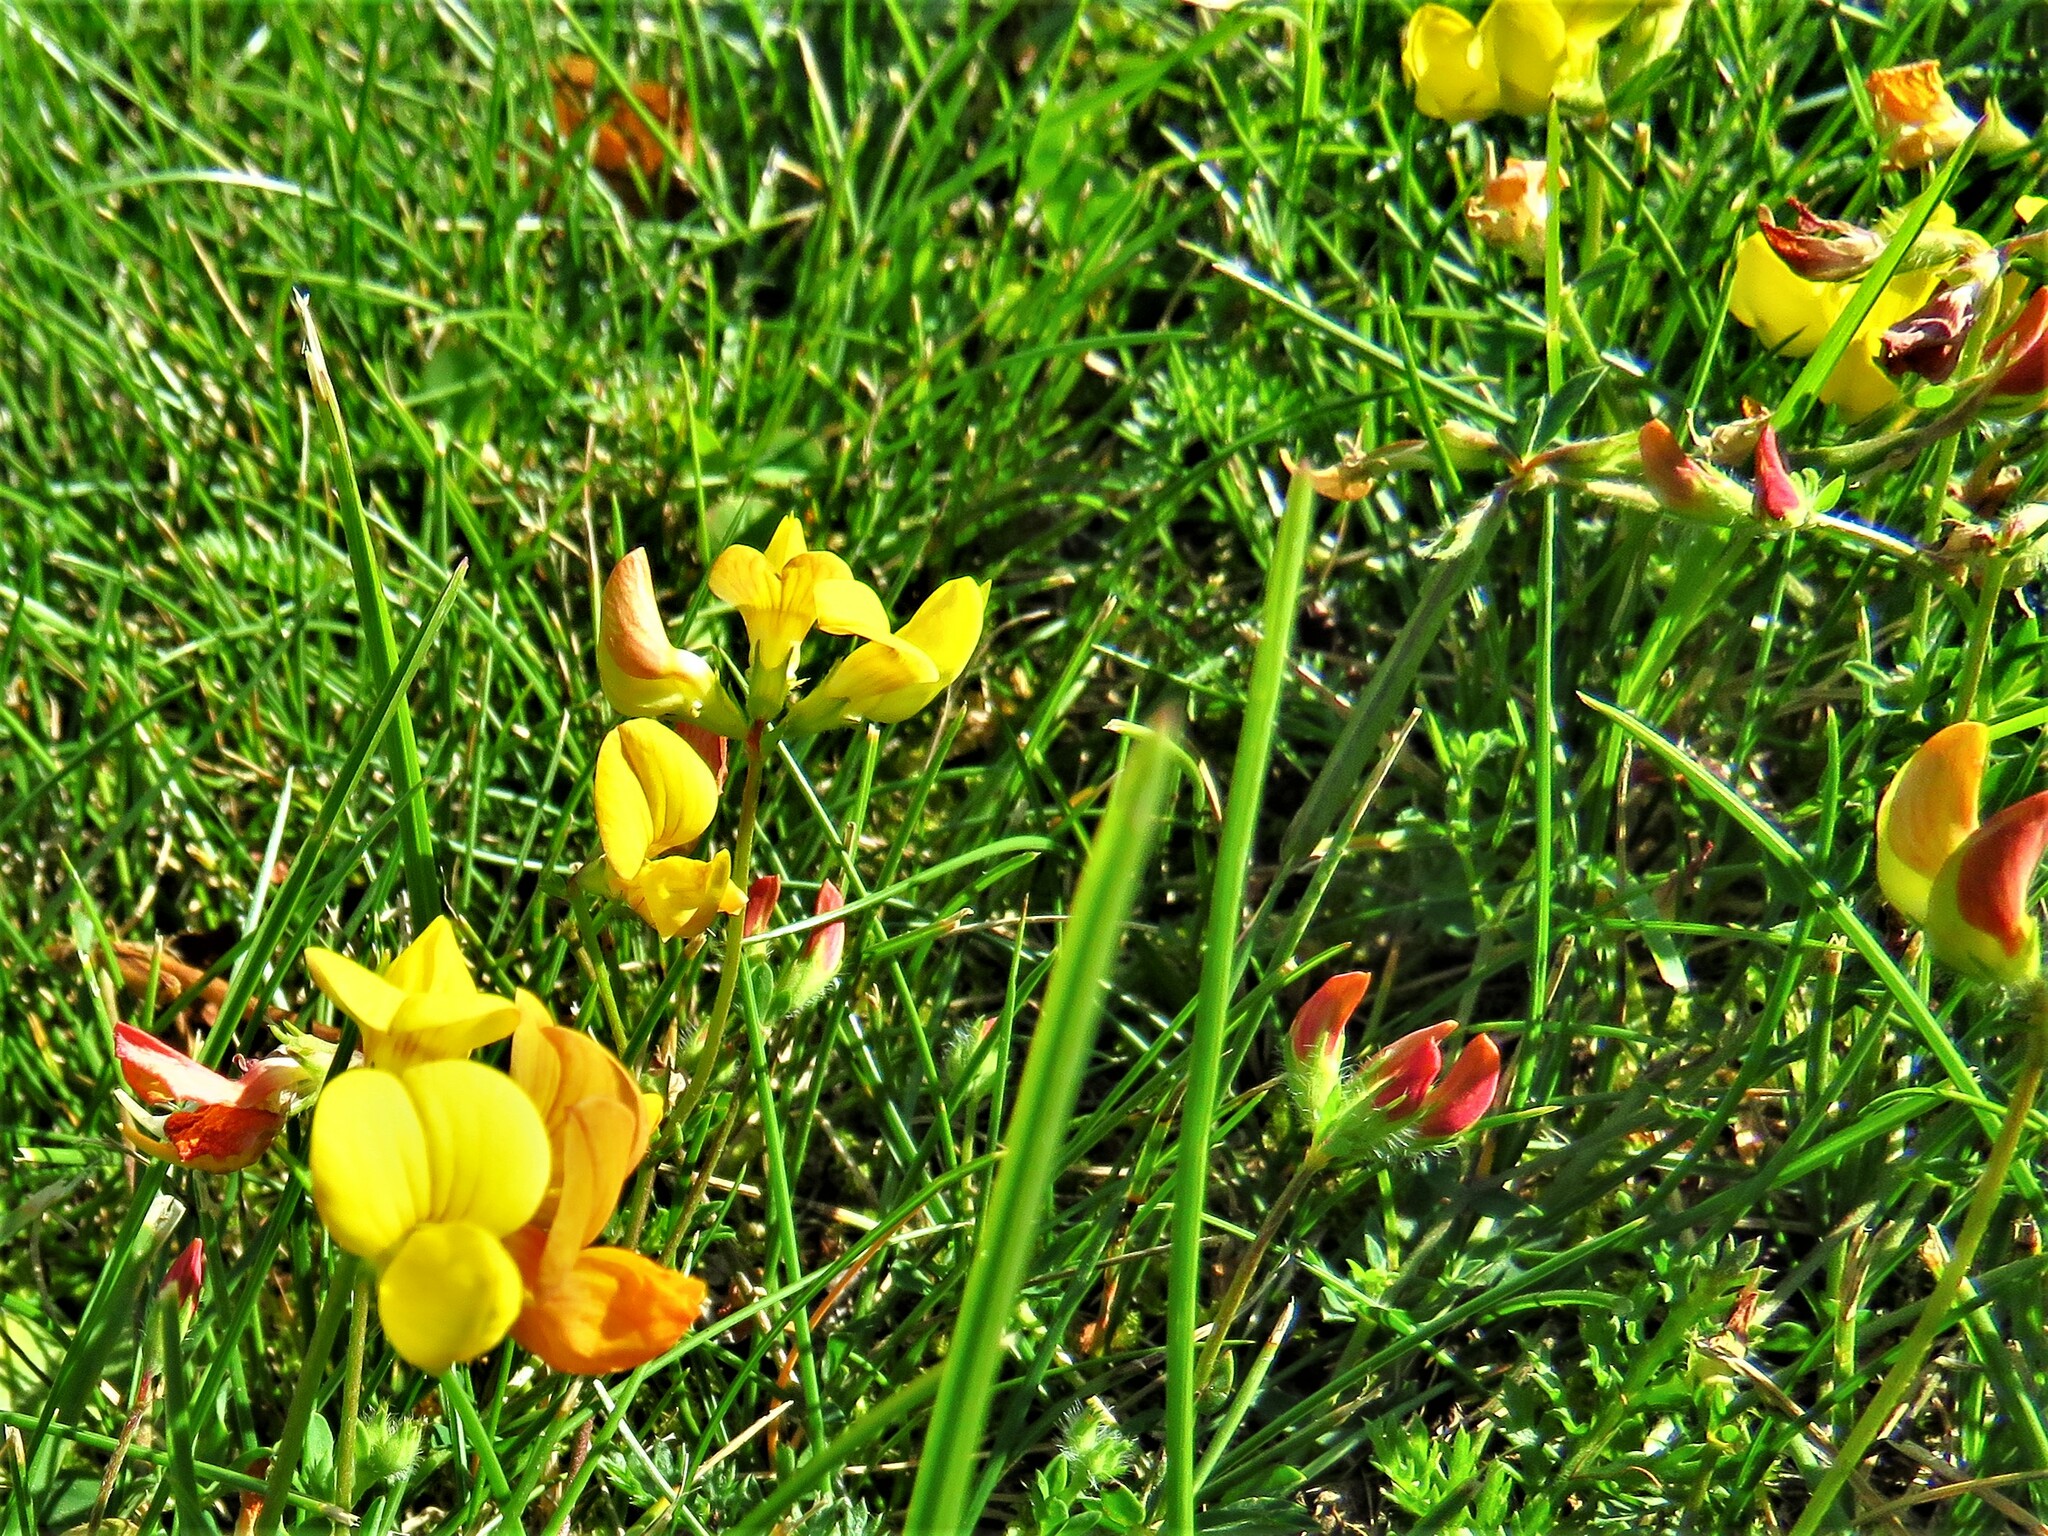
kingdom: Plantae
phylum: Tracheophyta
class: Magnoliopsida
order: Fabales
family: Fabaceae
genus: Lotus
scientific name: Lotus corniculatus
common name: Common bird's-foot-trefoil
